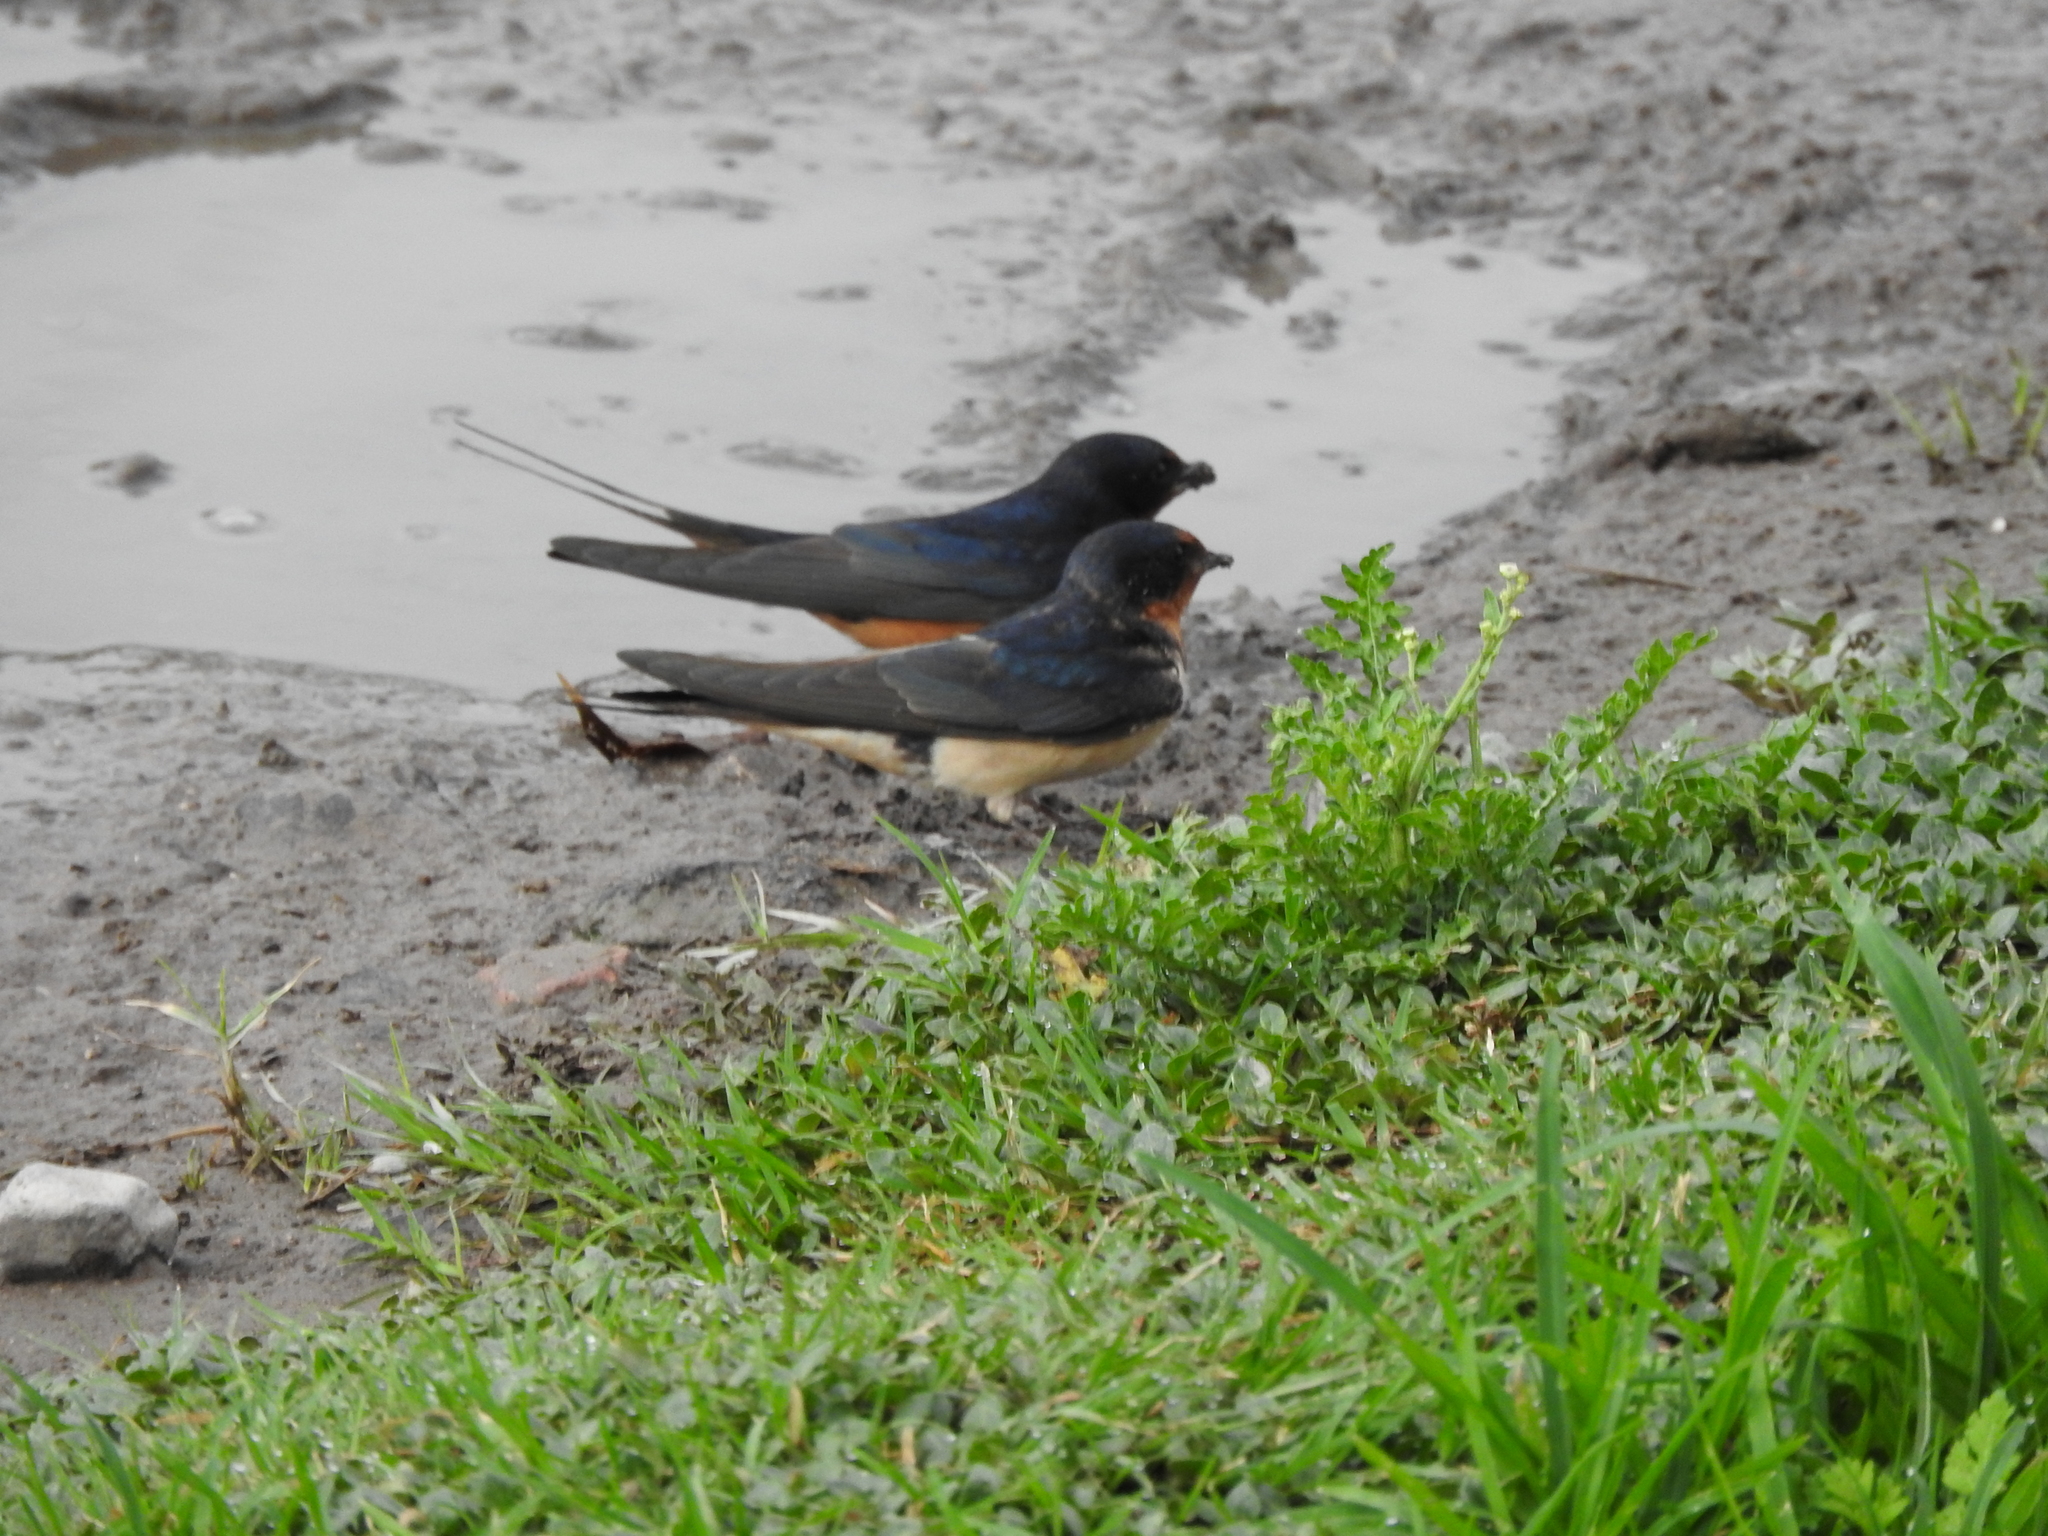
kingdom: Animalia
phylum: Chordata
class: Aves
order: Passeriformes
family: Hirundinidae
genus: Hirundo
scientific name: Hirundo rustica
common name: Barn swallow
